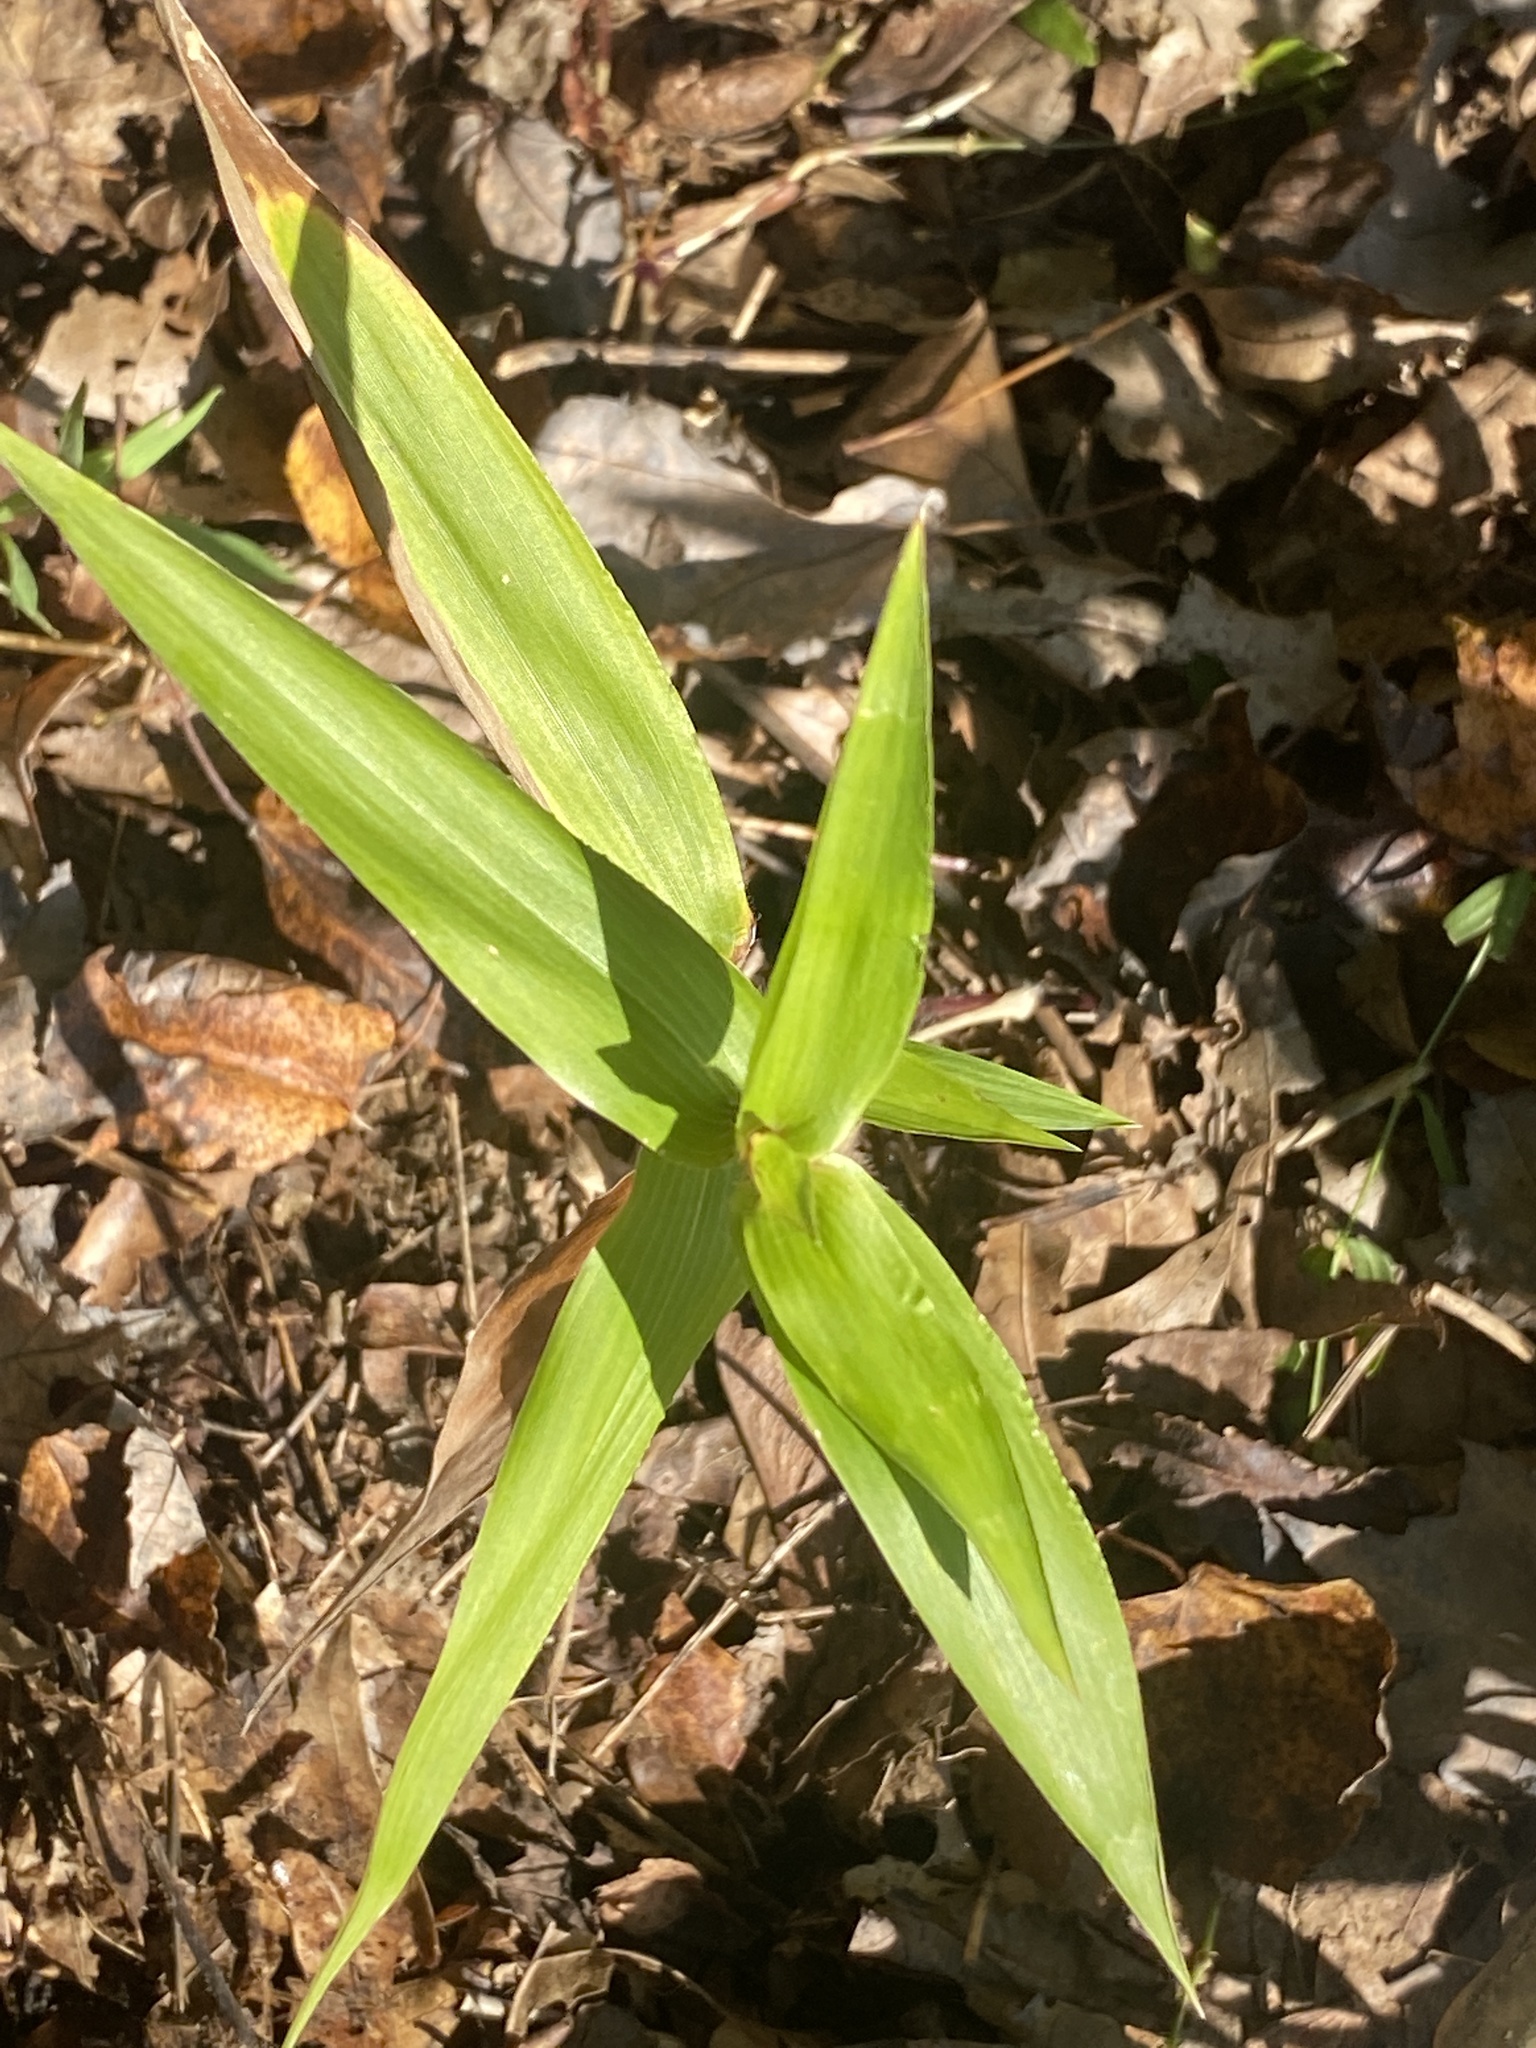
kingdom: Plantae
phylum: Tracheophyta
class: Liliopsida
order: Poales
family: Poaceae
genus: Dichanthelium
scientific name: Dichanthelium clandestinum
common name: Deer-tongue grass
